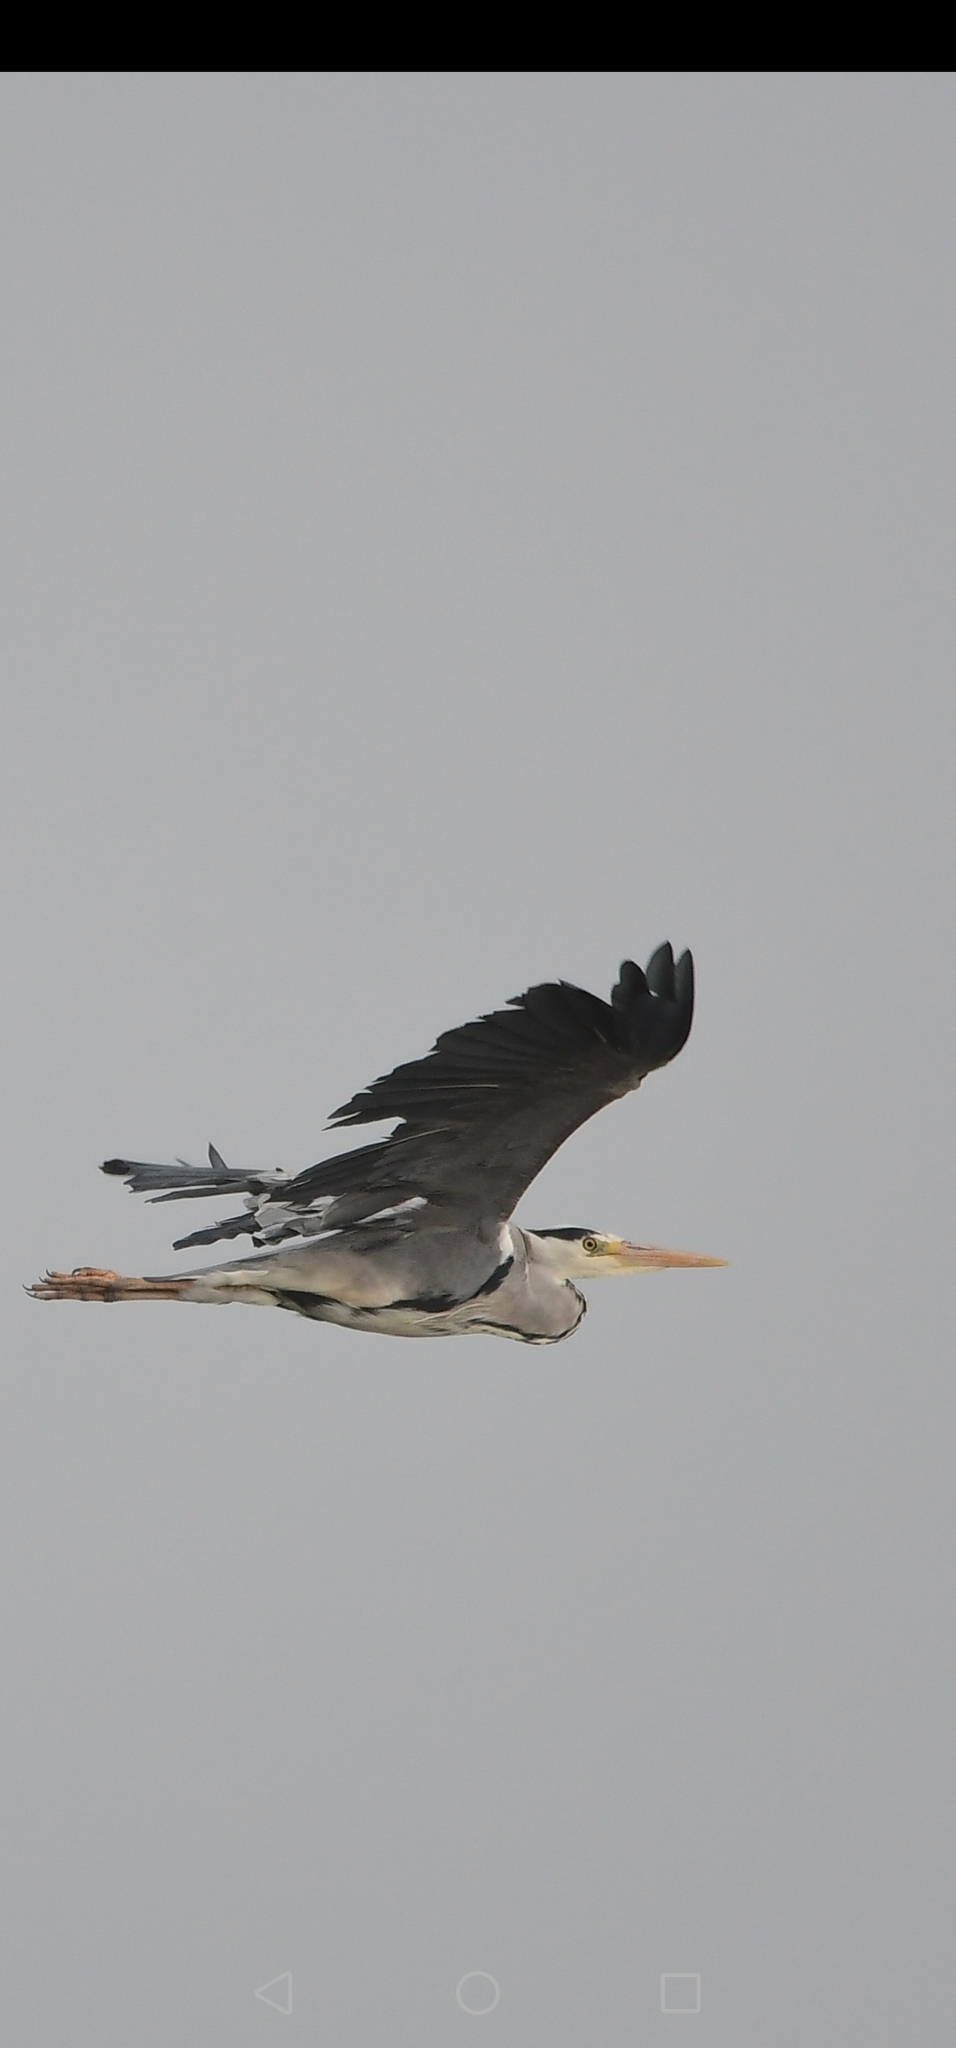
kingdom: Animalia
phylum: Chordata
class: Aves
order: Pelecaniformes
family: Ardeidae
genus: Ardea
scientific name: Ardea cinerea
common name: Grey heron
